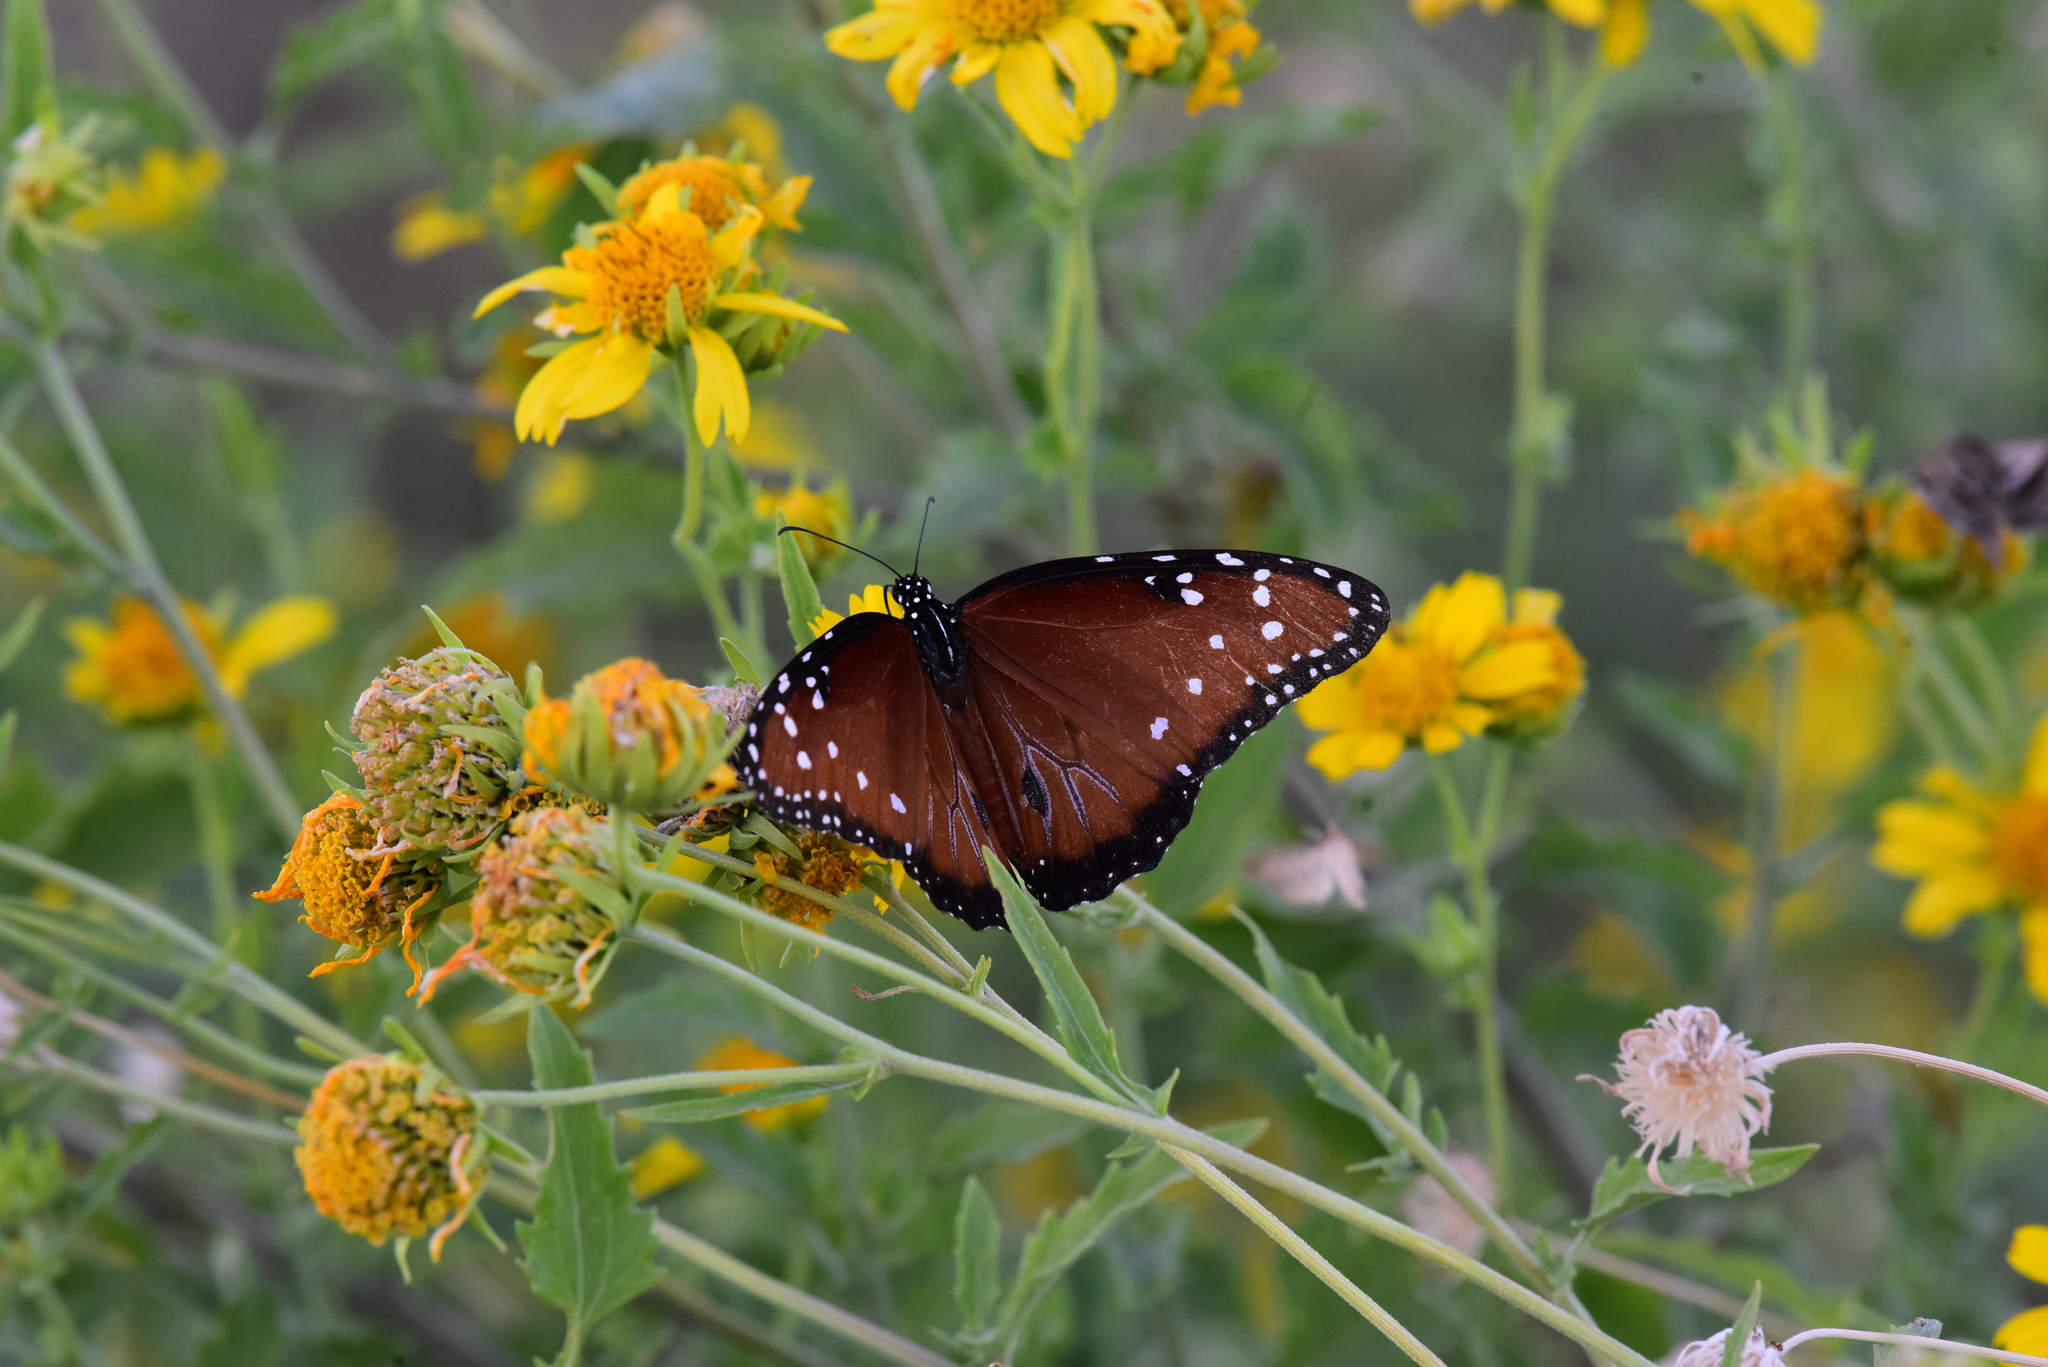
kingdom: Animalia
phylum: Arthropoda
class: Insecta
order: Lepidoptera
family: Nymphalidae
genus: Danaus
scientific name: Danaus gilippus
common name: Queen
